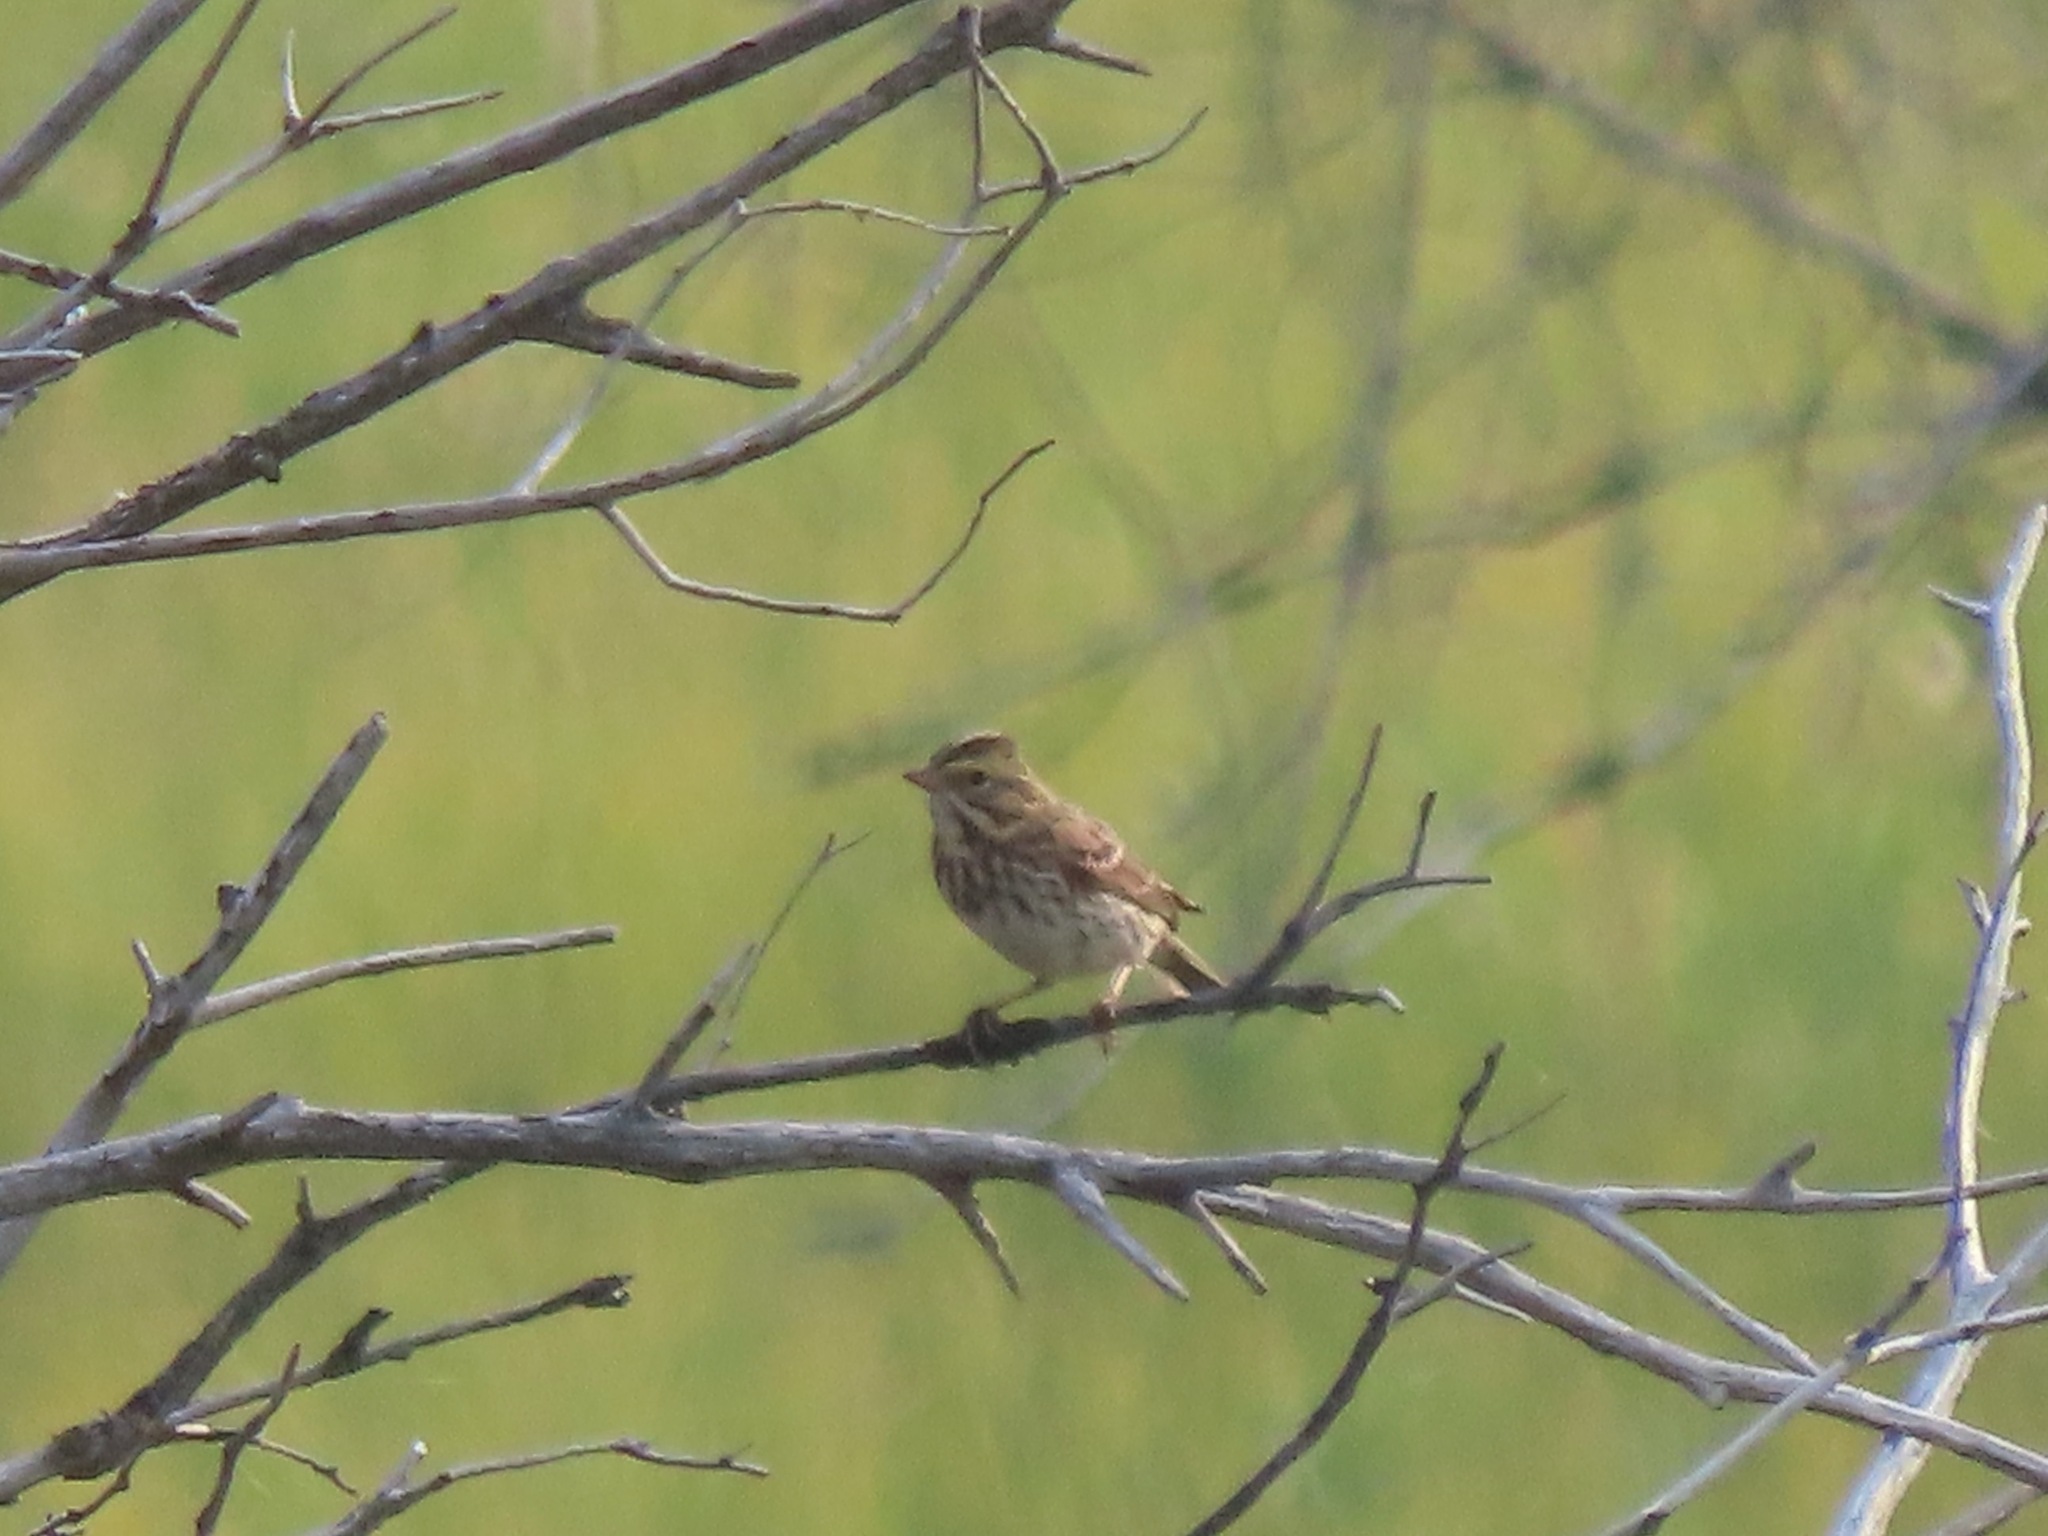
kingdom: Animalia
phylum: Chordata
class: Aves
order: Passeriformes
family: Passerellidae
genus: Passerculus
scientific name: Passerculus sandwichensis
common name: Savannah sparrow
